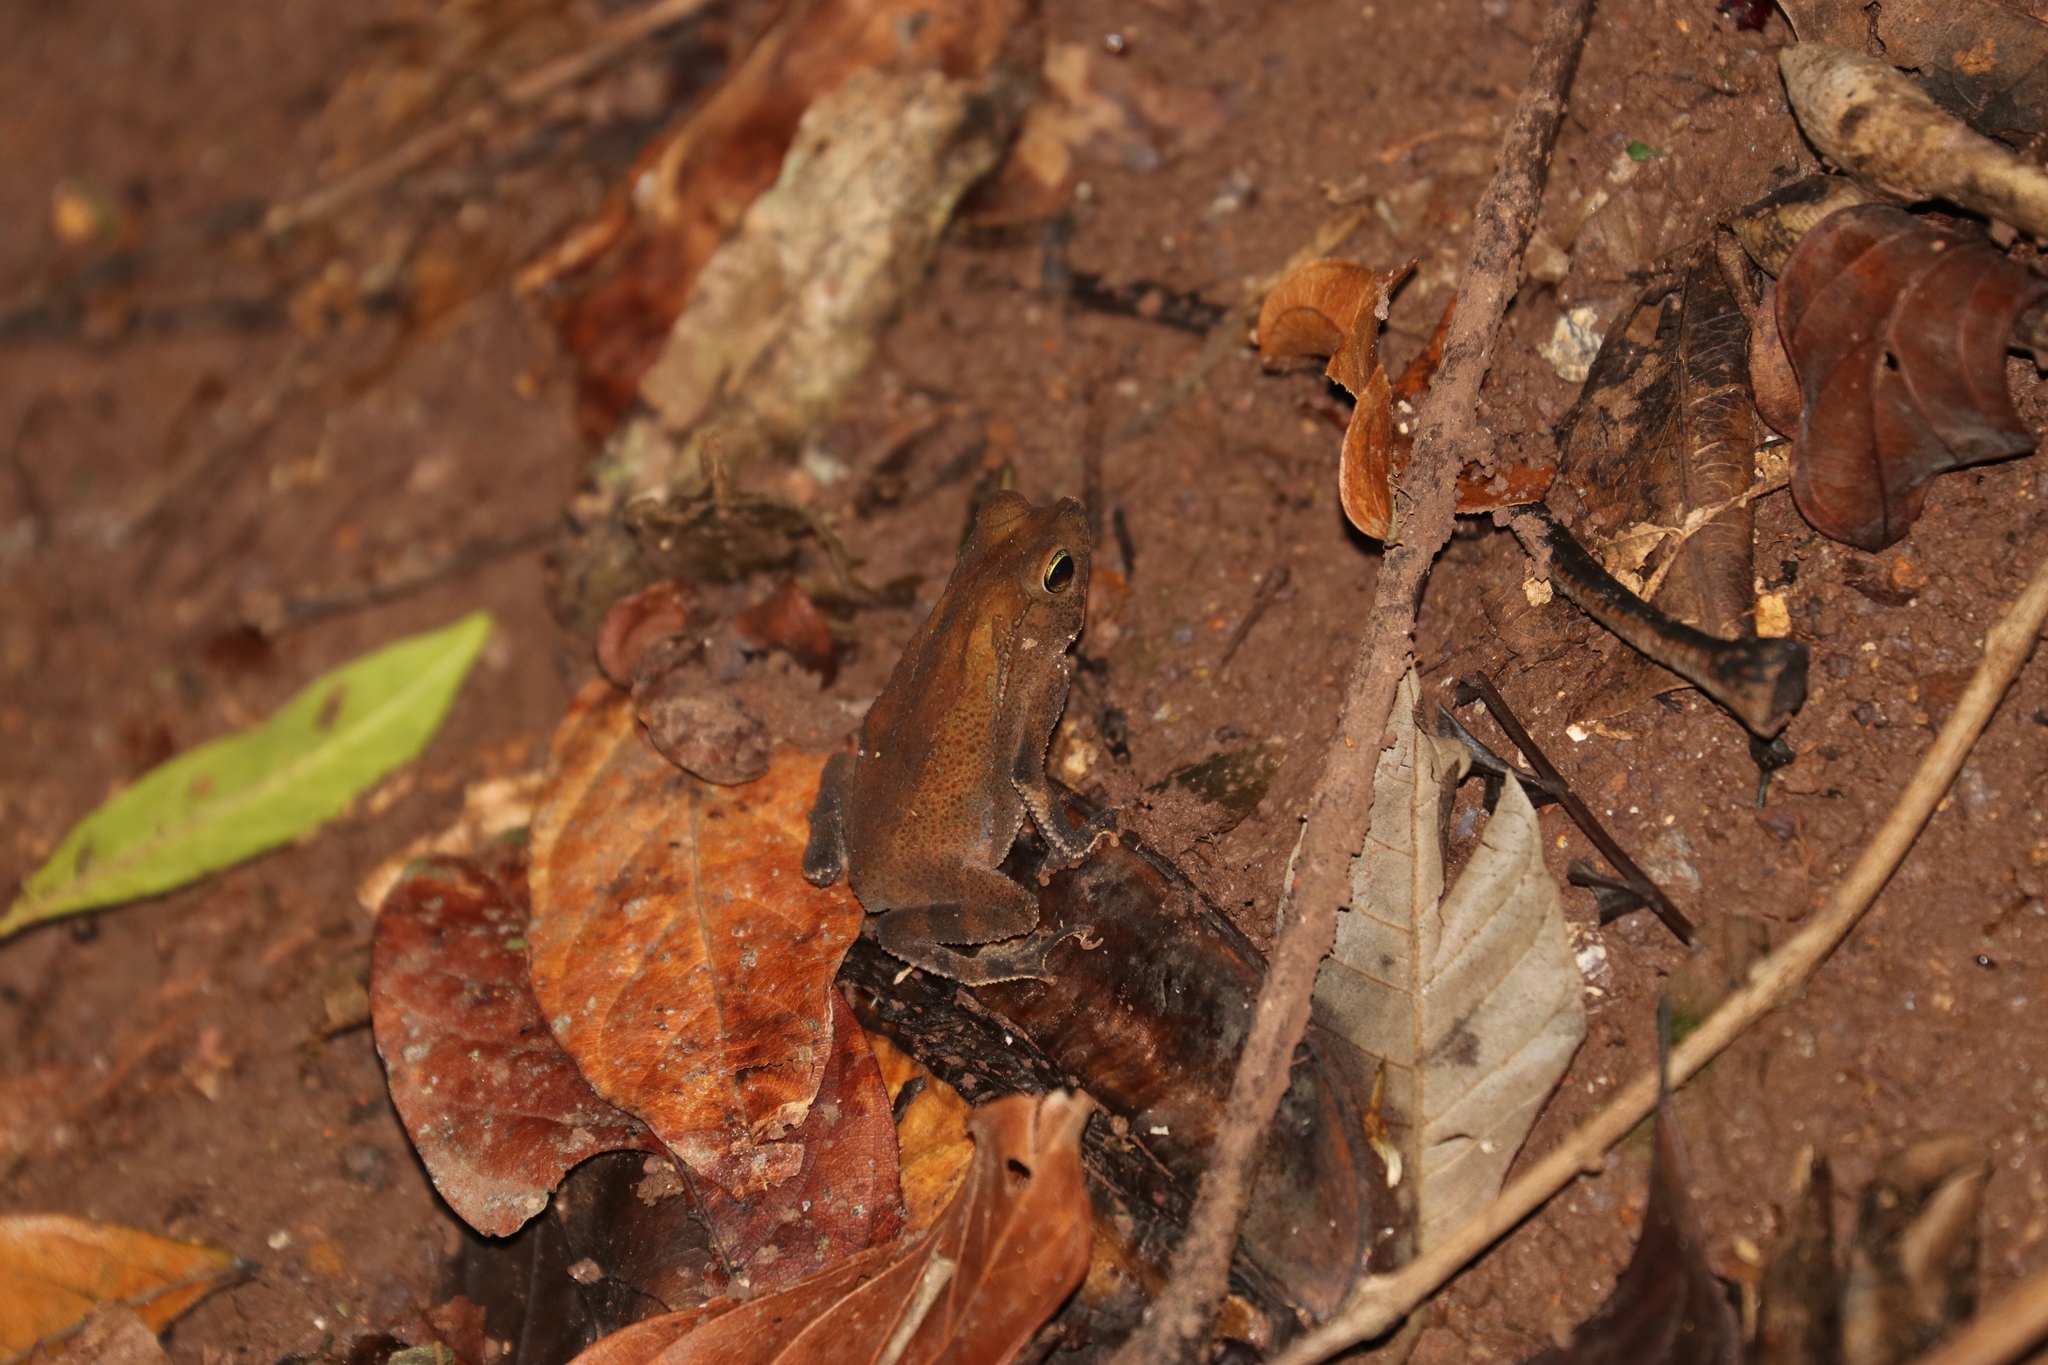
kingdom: Animalia
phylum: Chordata
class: Amphibia
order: Anura
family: Bufonidae
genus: Rhinella
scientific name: Rhinella alata
